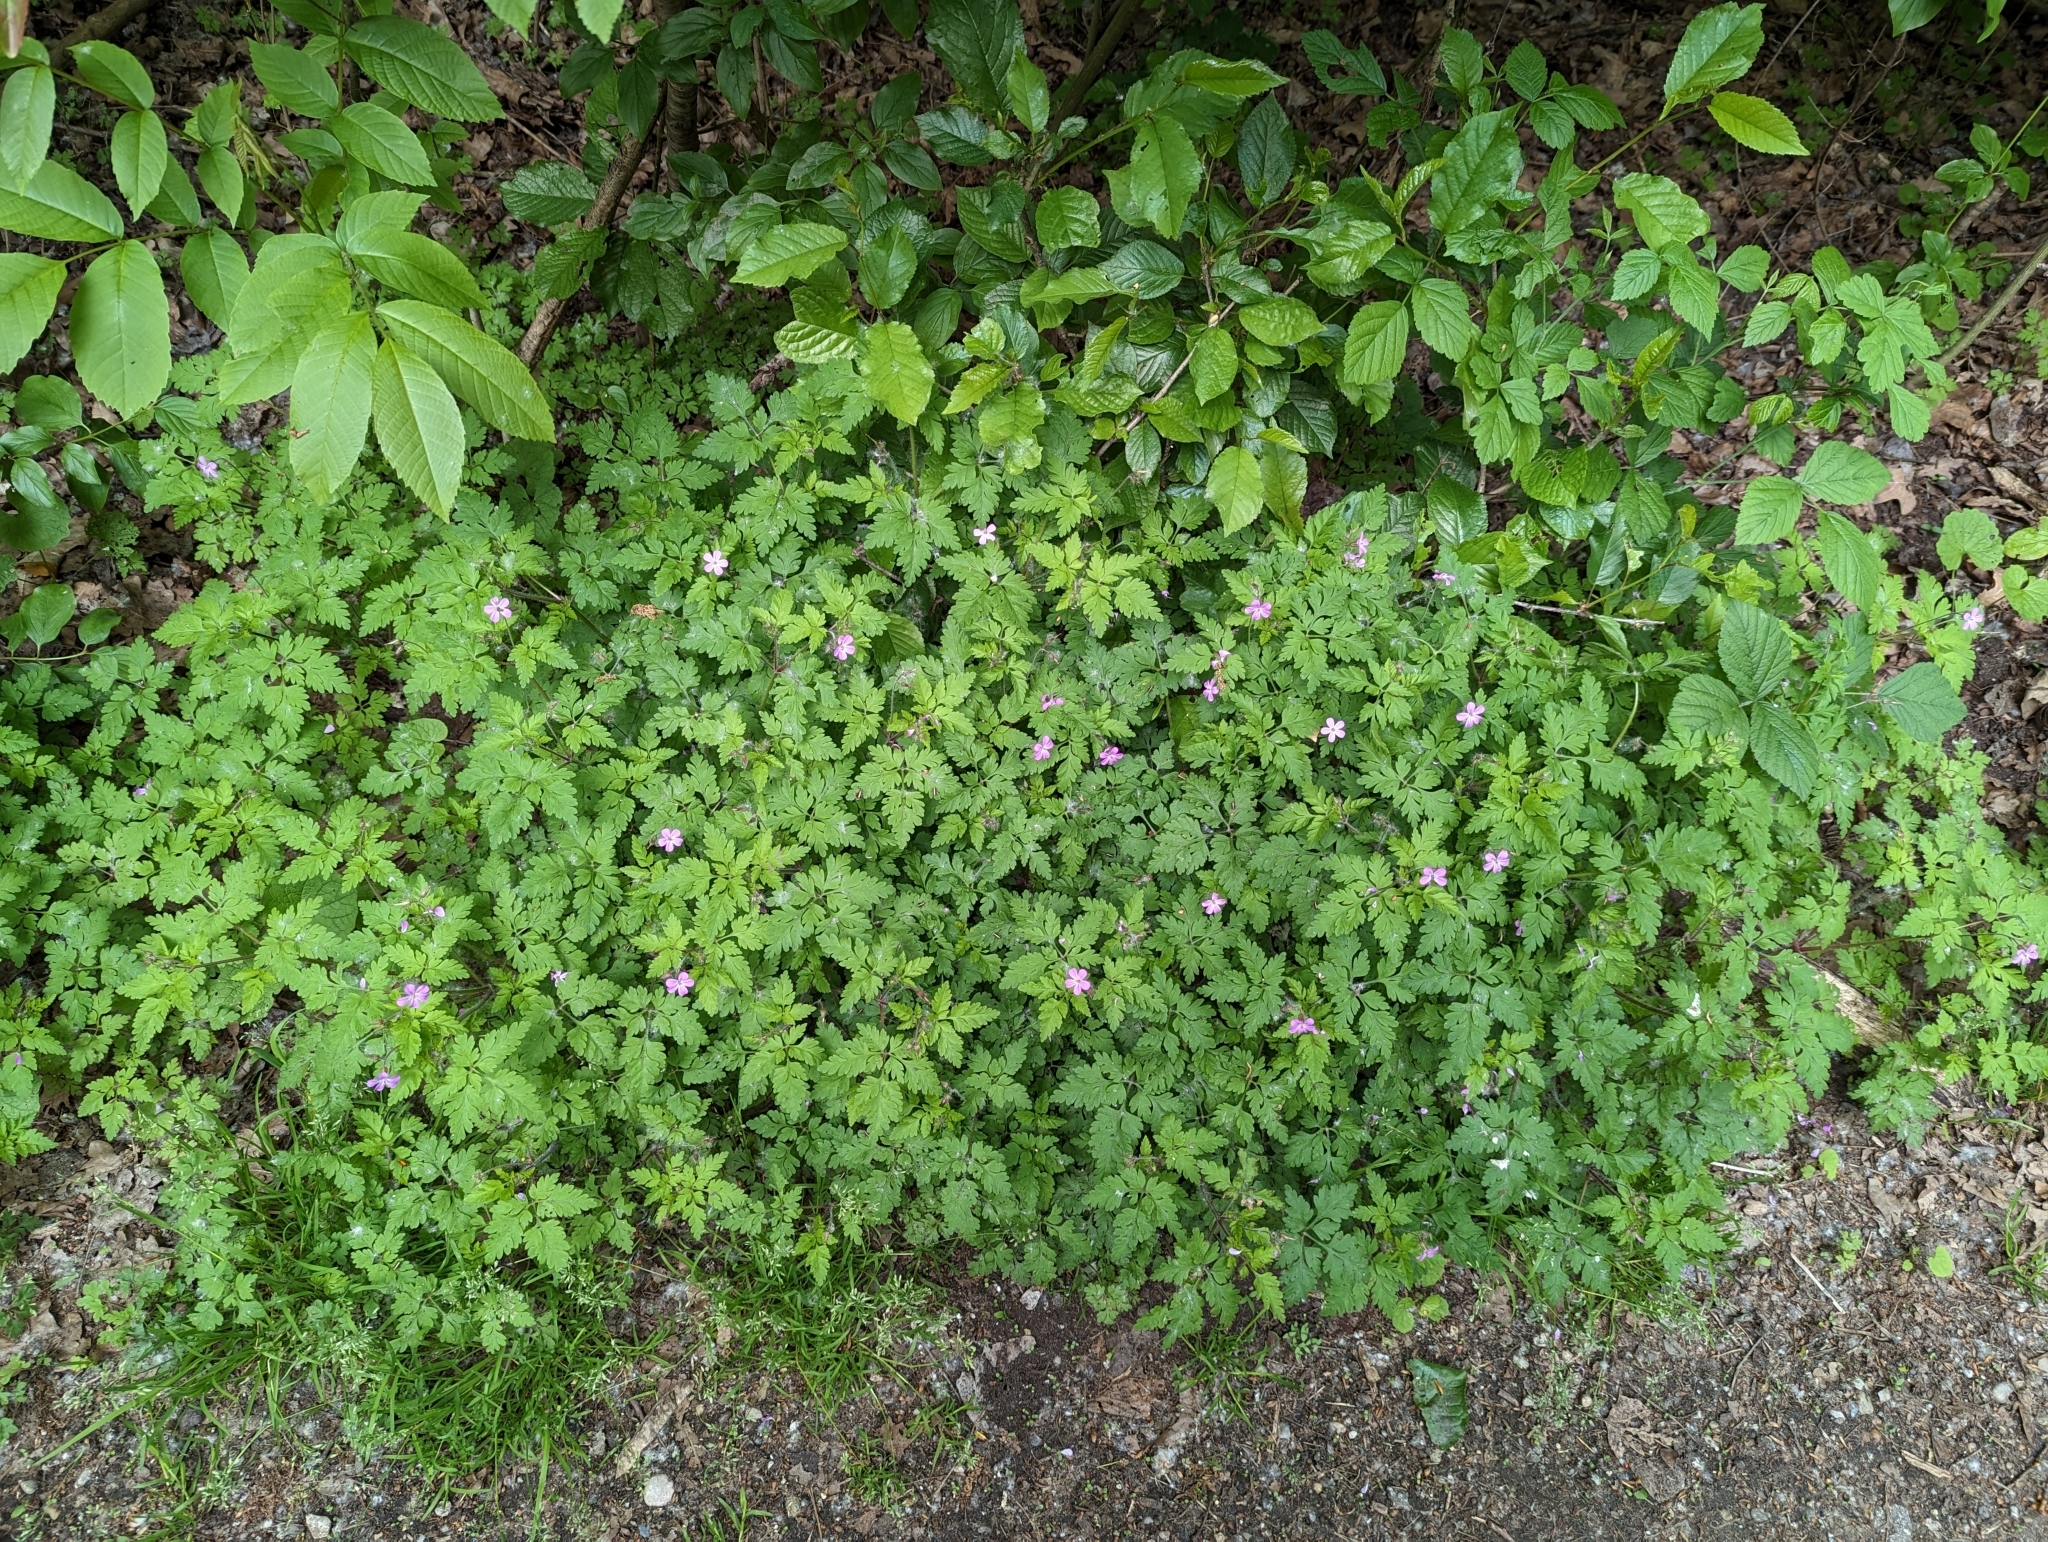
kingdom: Plantae
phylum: Tracheophyta
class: Magnoliopsida
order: Geraniales
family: Geraniaceae
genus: Geranium
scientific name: Geranium robertianum
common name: Herb-robert
